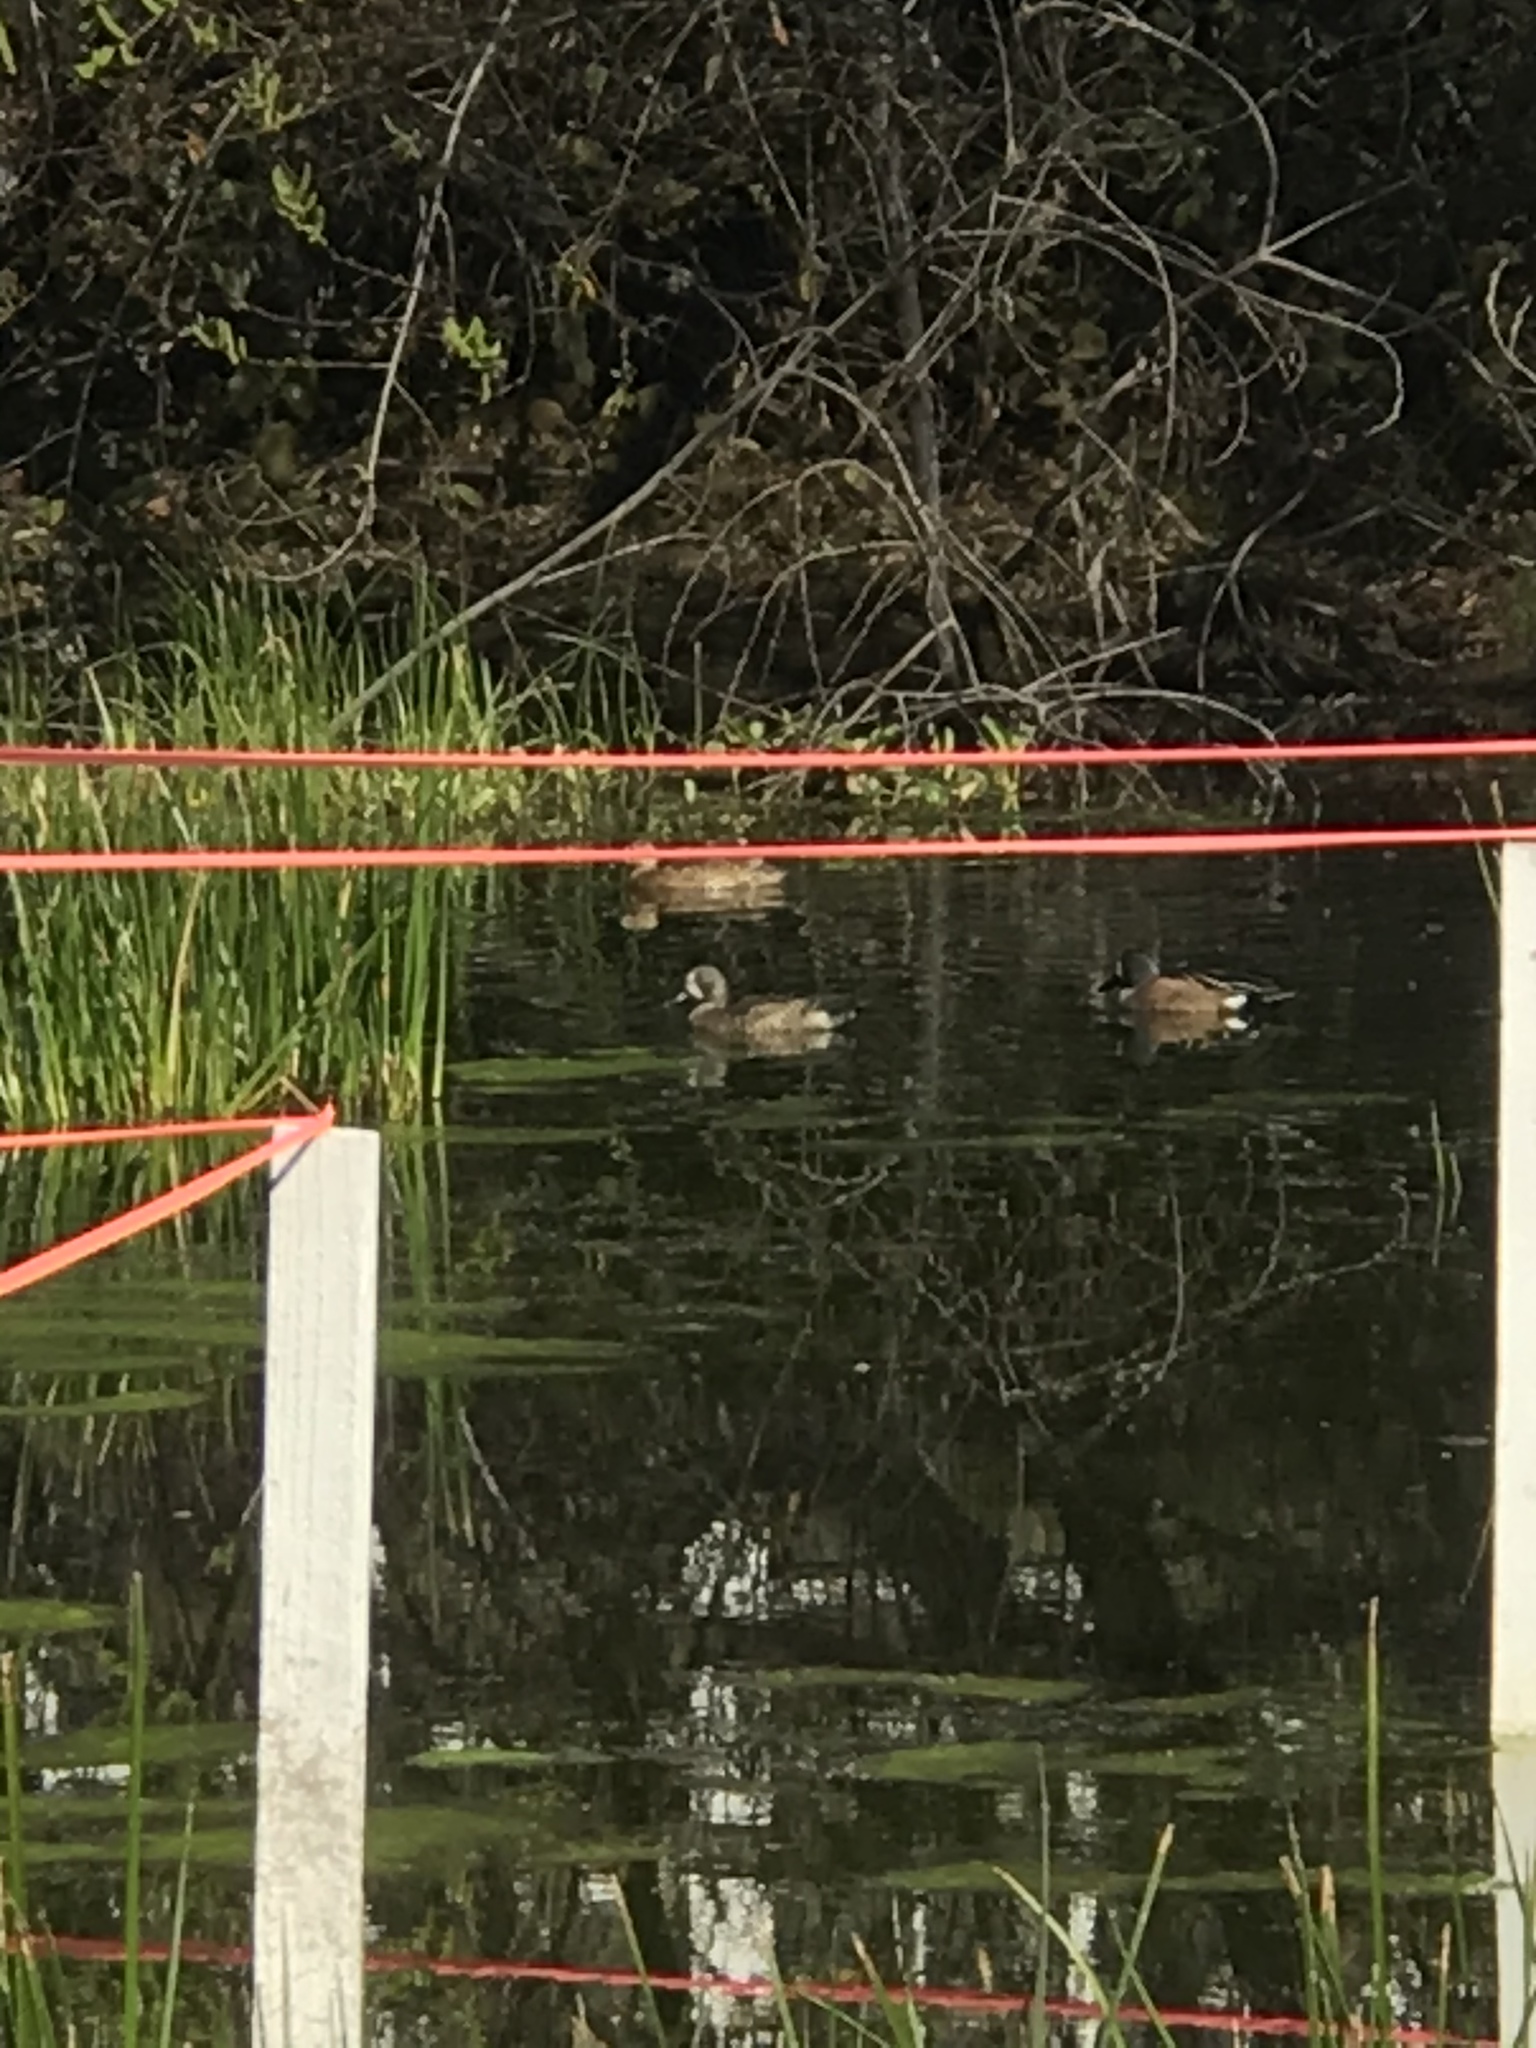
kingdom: Animalia
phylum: Chordata
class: Aves
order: Anseriformes
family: Anatidae
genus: Spatula
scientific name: Spatula discors
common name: Blue-winged teal
